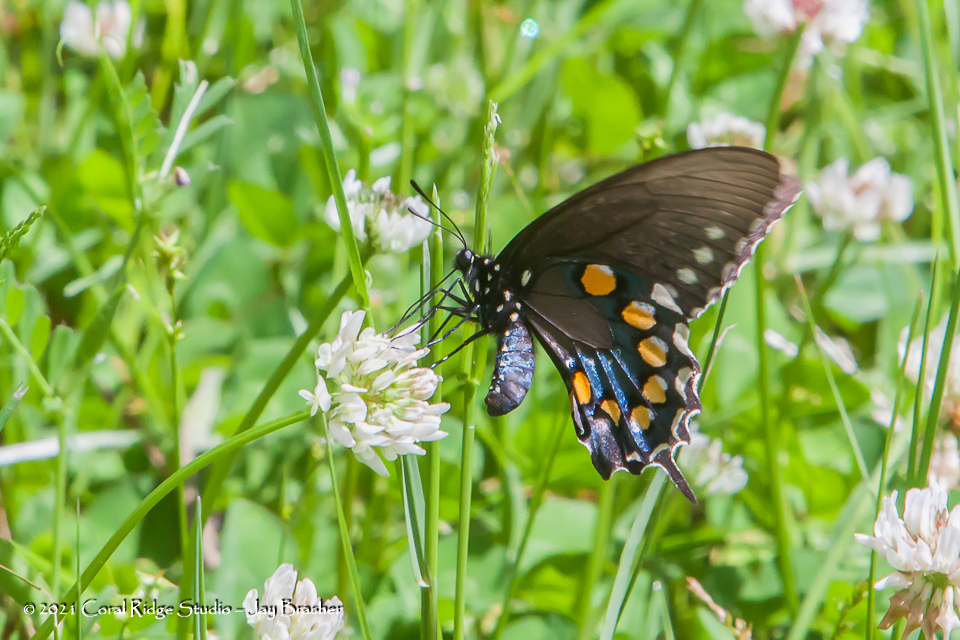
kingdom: Animalia
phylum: Arthropoda
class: Insecta
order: Lepidoptera
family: Papilionidae
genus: Battus
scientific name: Battus philenor
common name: Pipevine swallowtail
